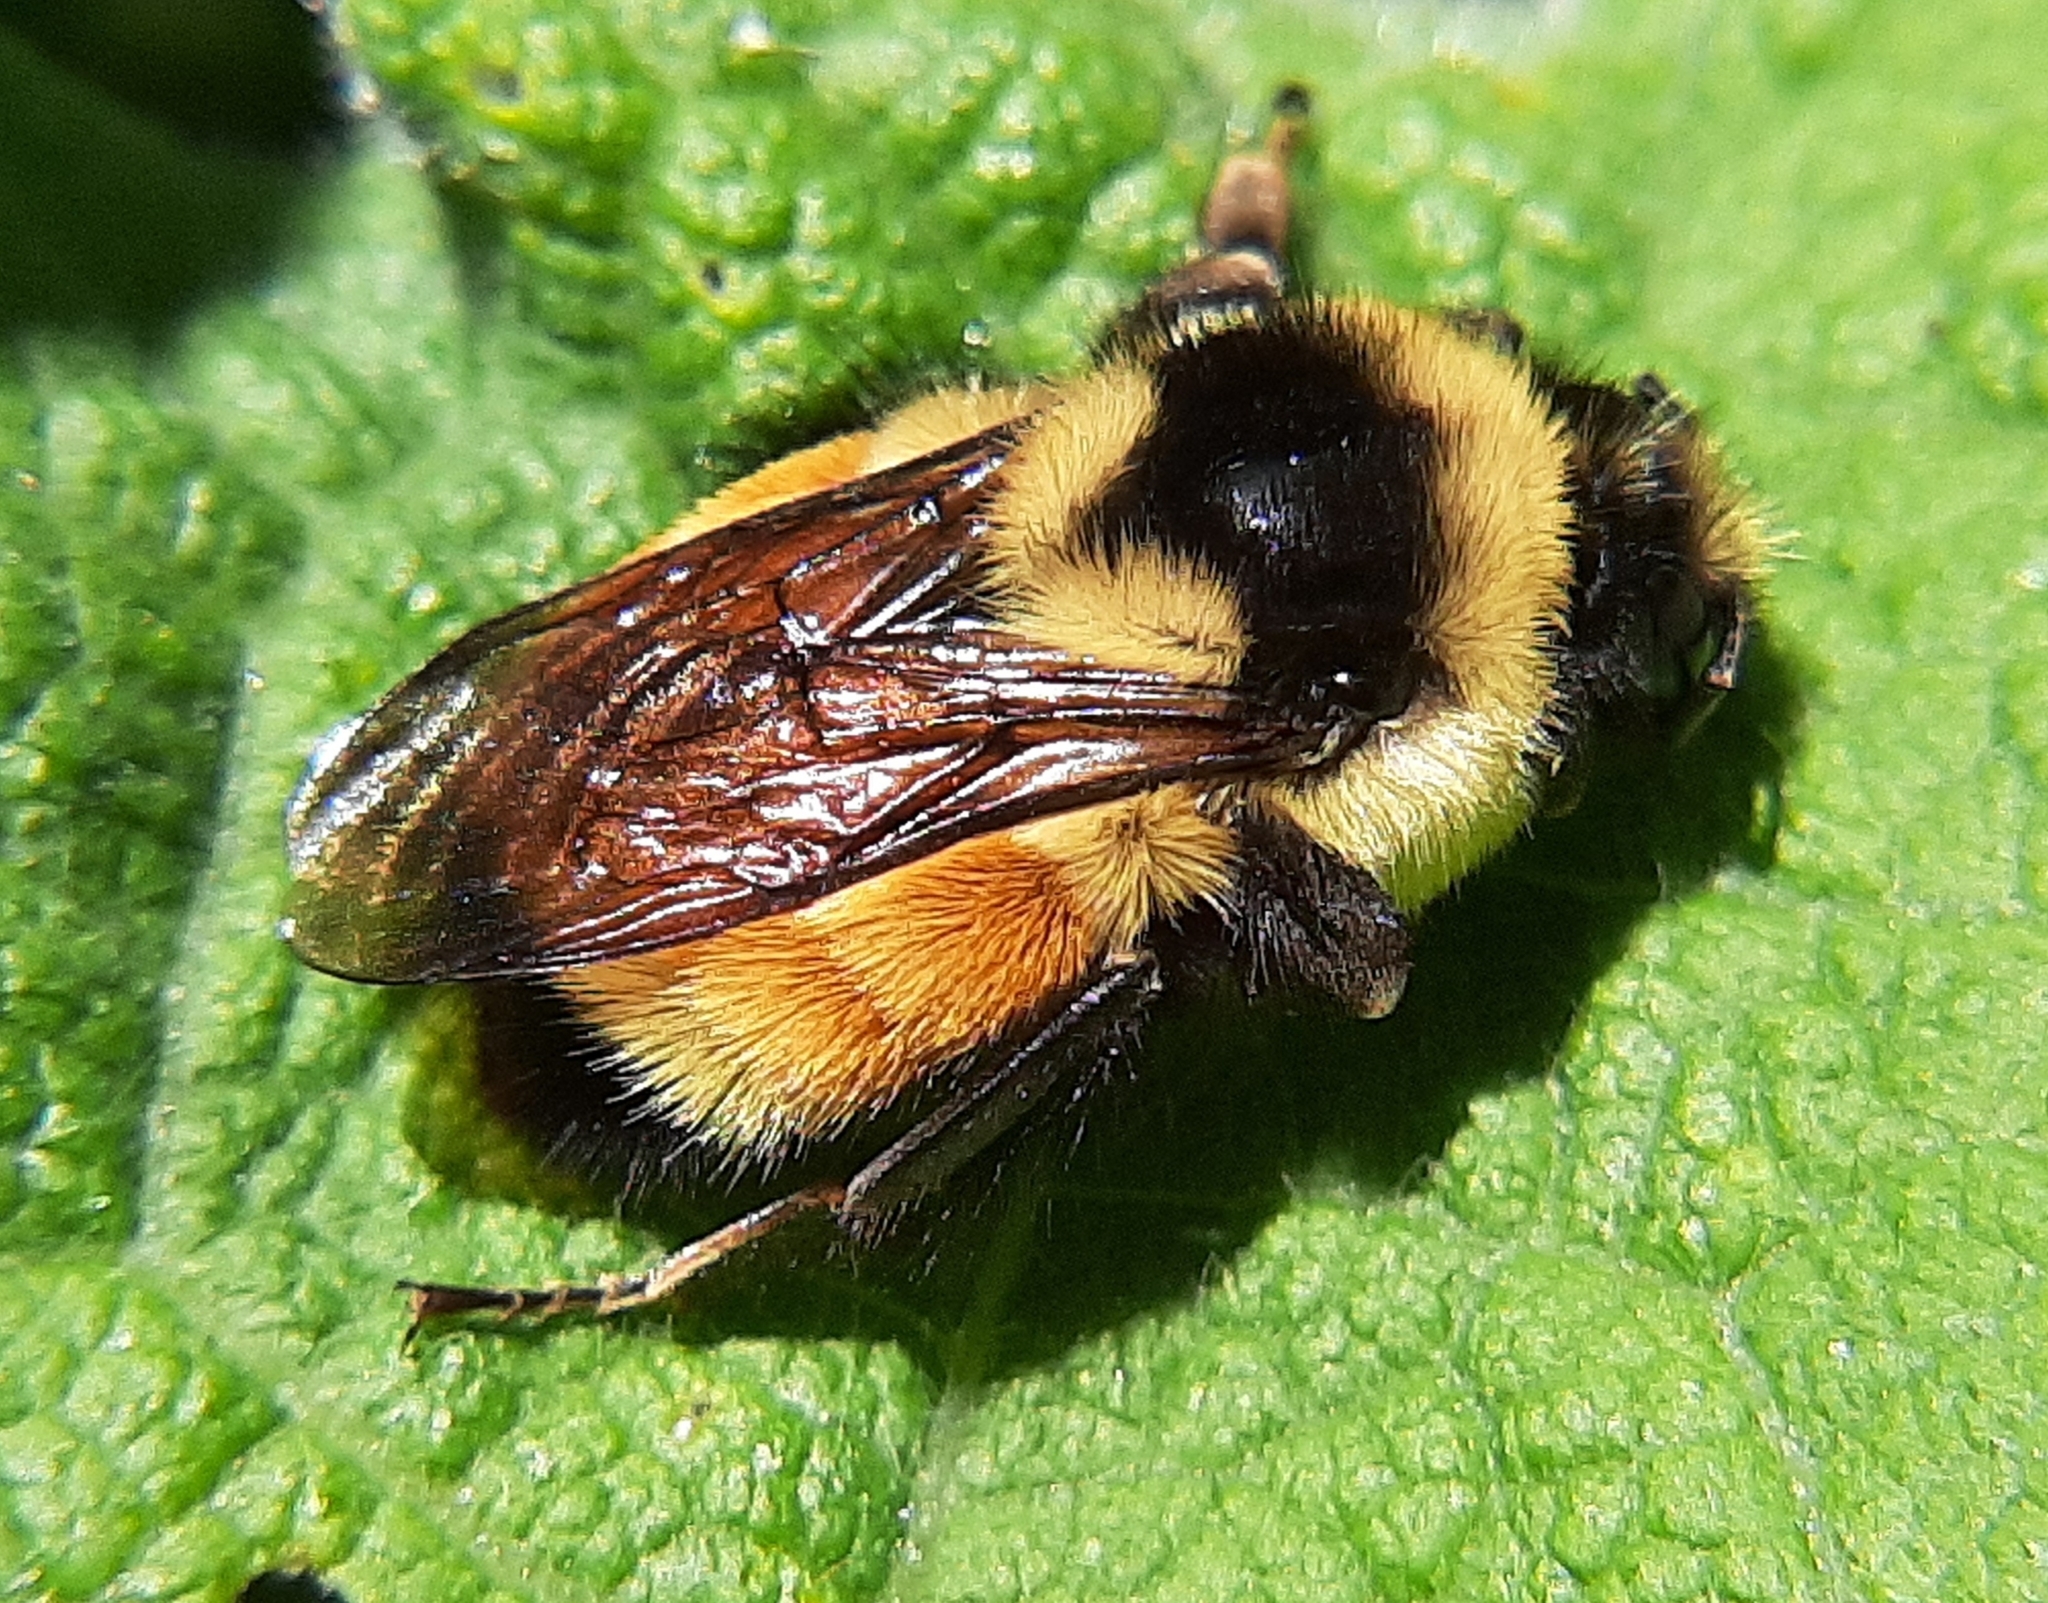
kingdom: Animalia
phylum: Arthropoda
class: Insecta
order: Hymenoptera
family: Apidae
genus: Bombus
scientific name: Bombus ternarius
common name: Tri-colored bumble bee
